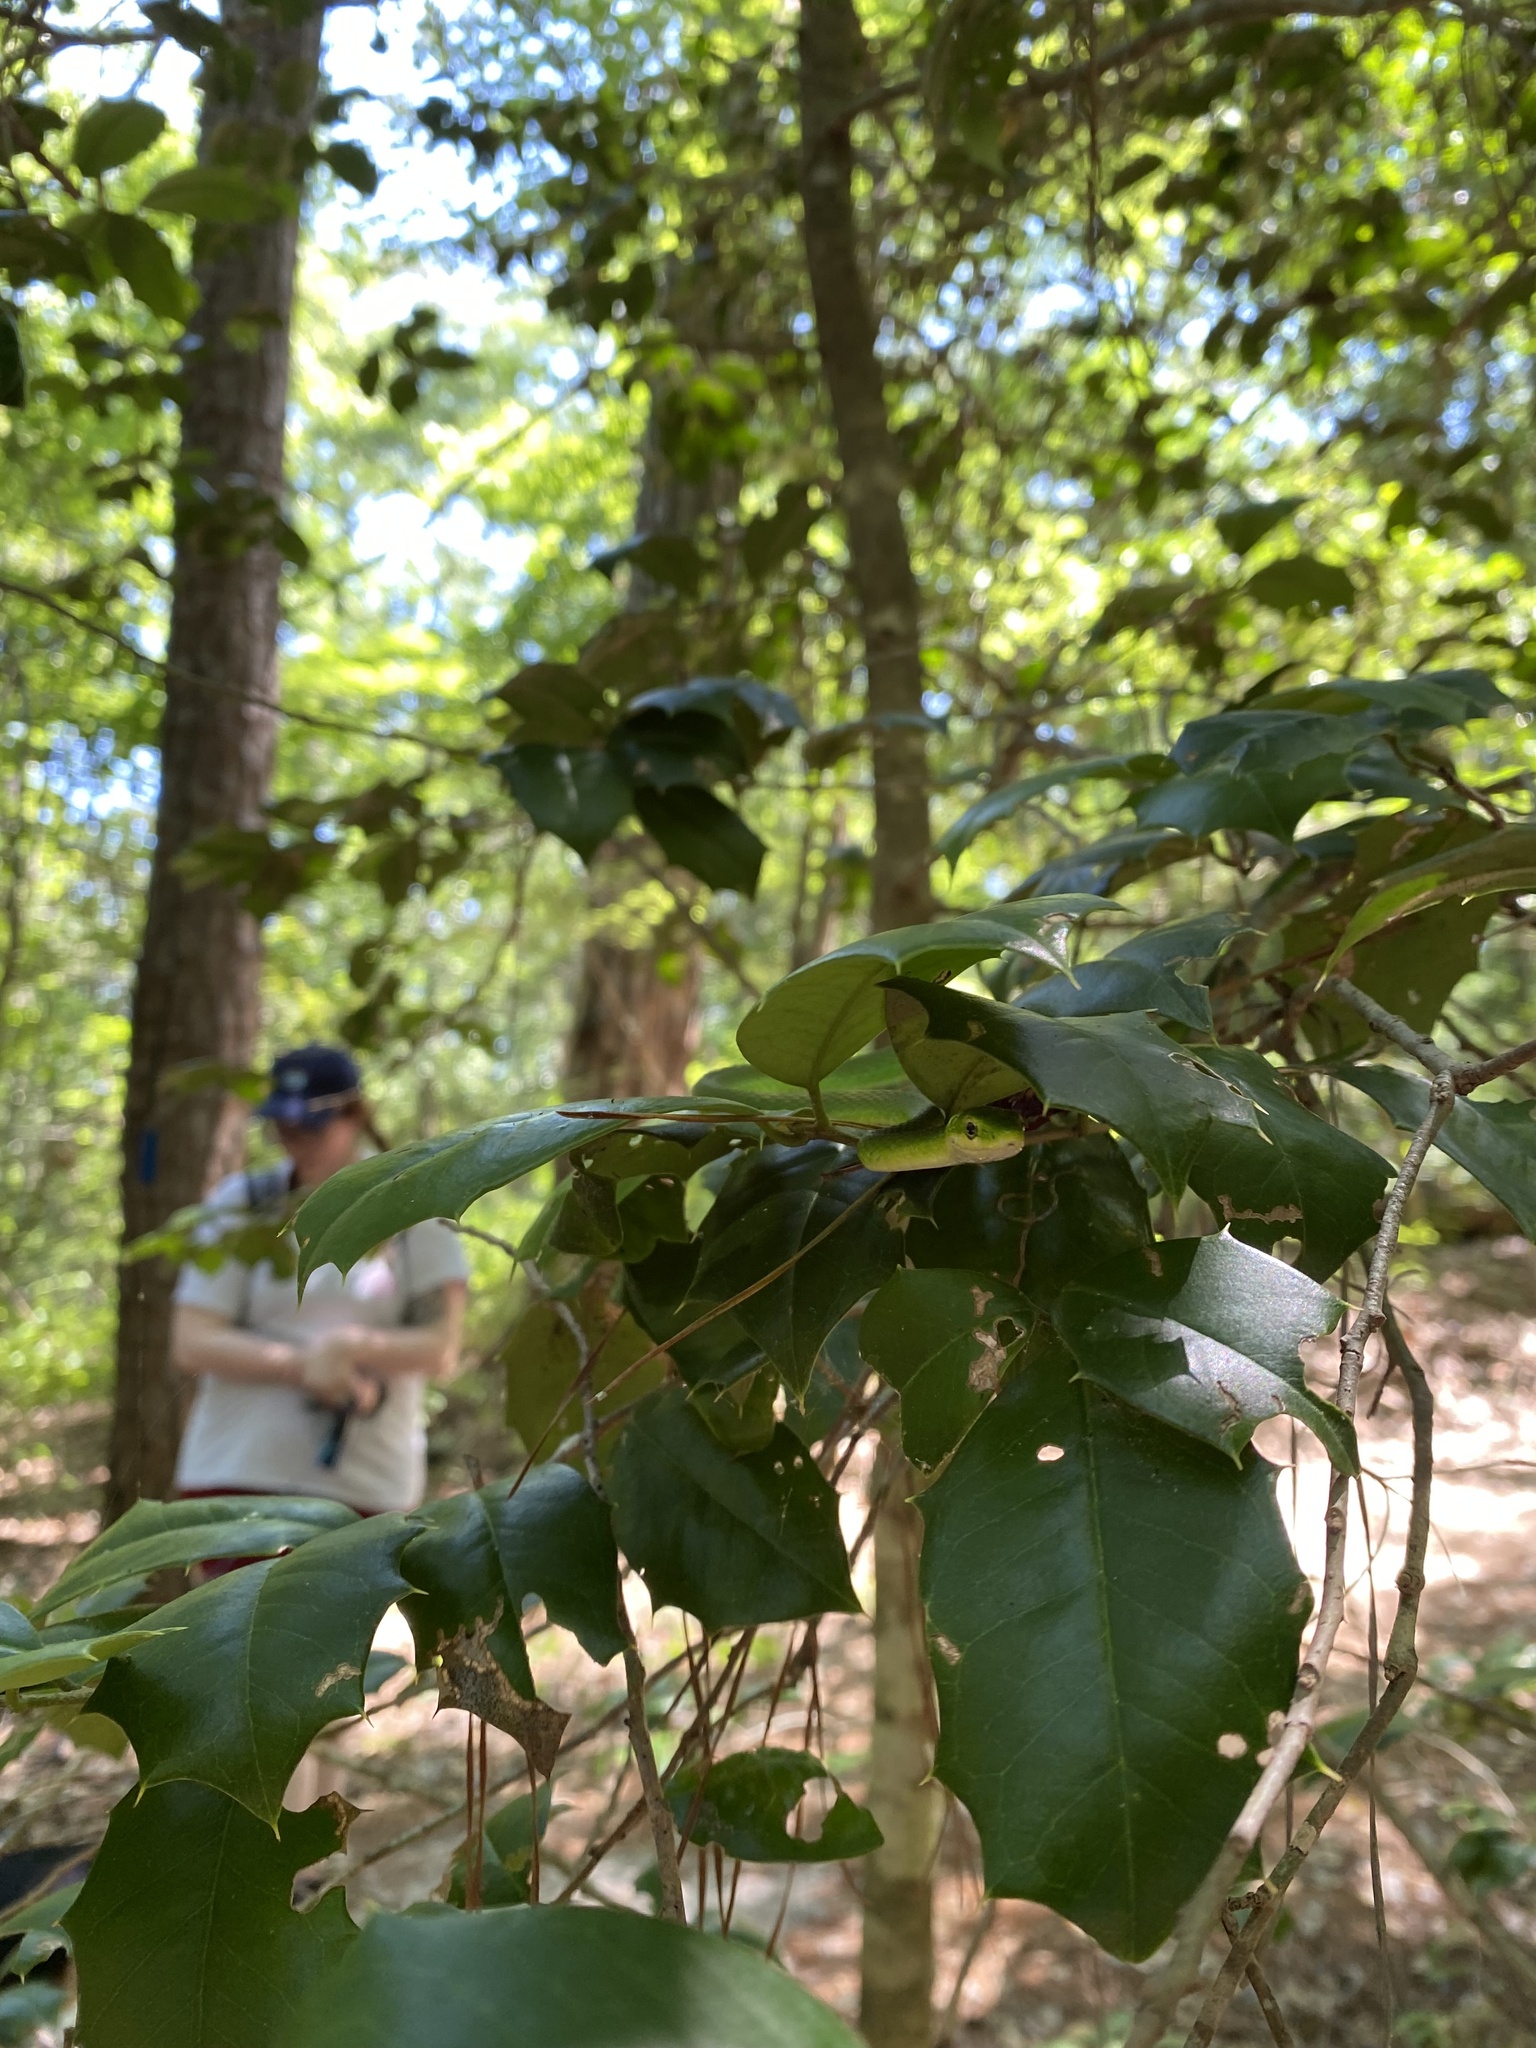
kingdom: Animalia
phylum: Chordata
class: Squamata
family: Colubridae
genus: Opheodrys
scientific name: Opheodrys aestivus
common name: Rough greensnake
